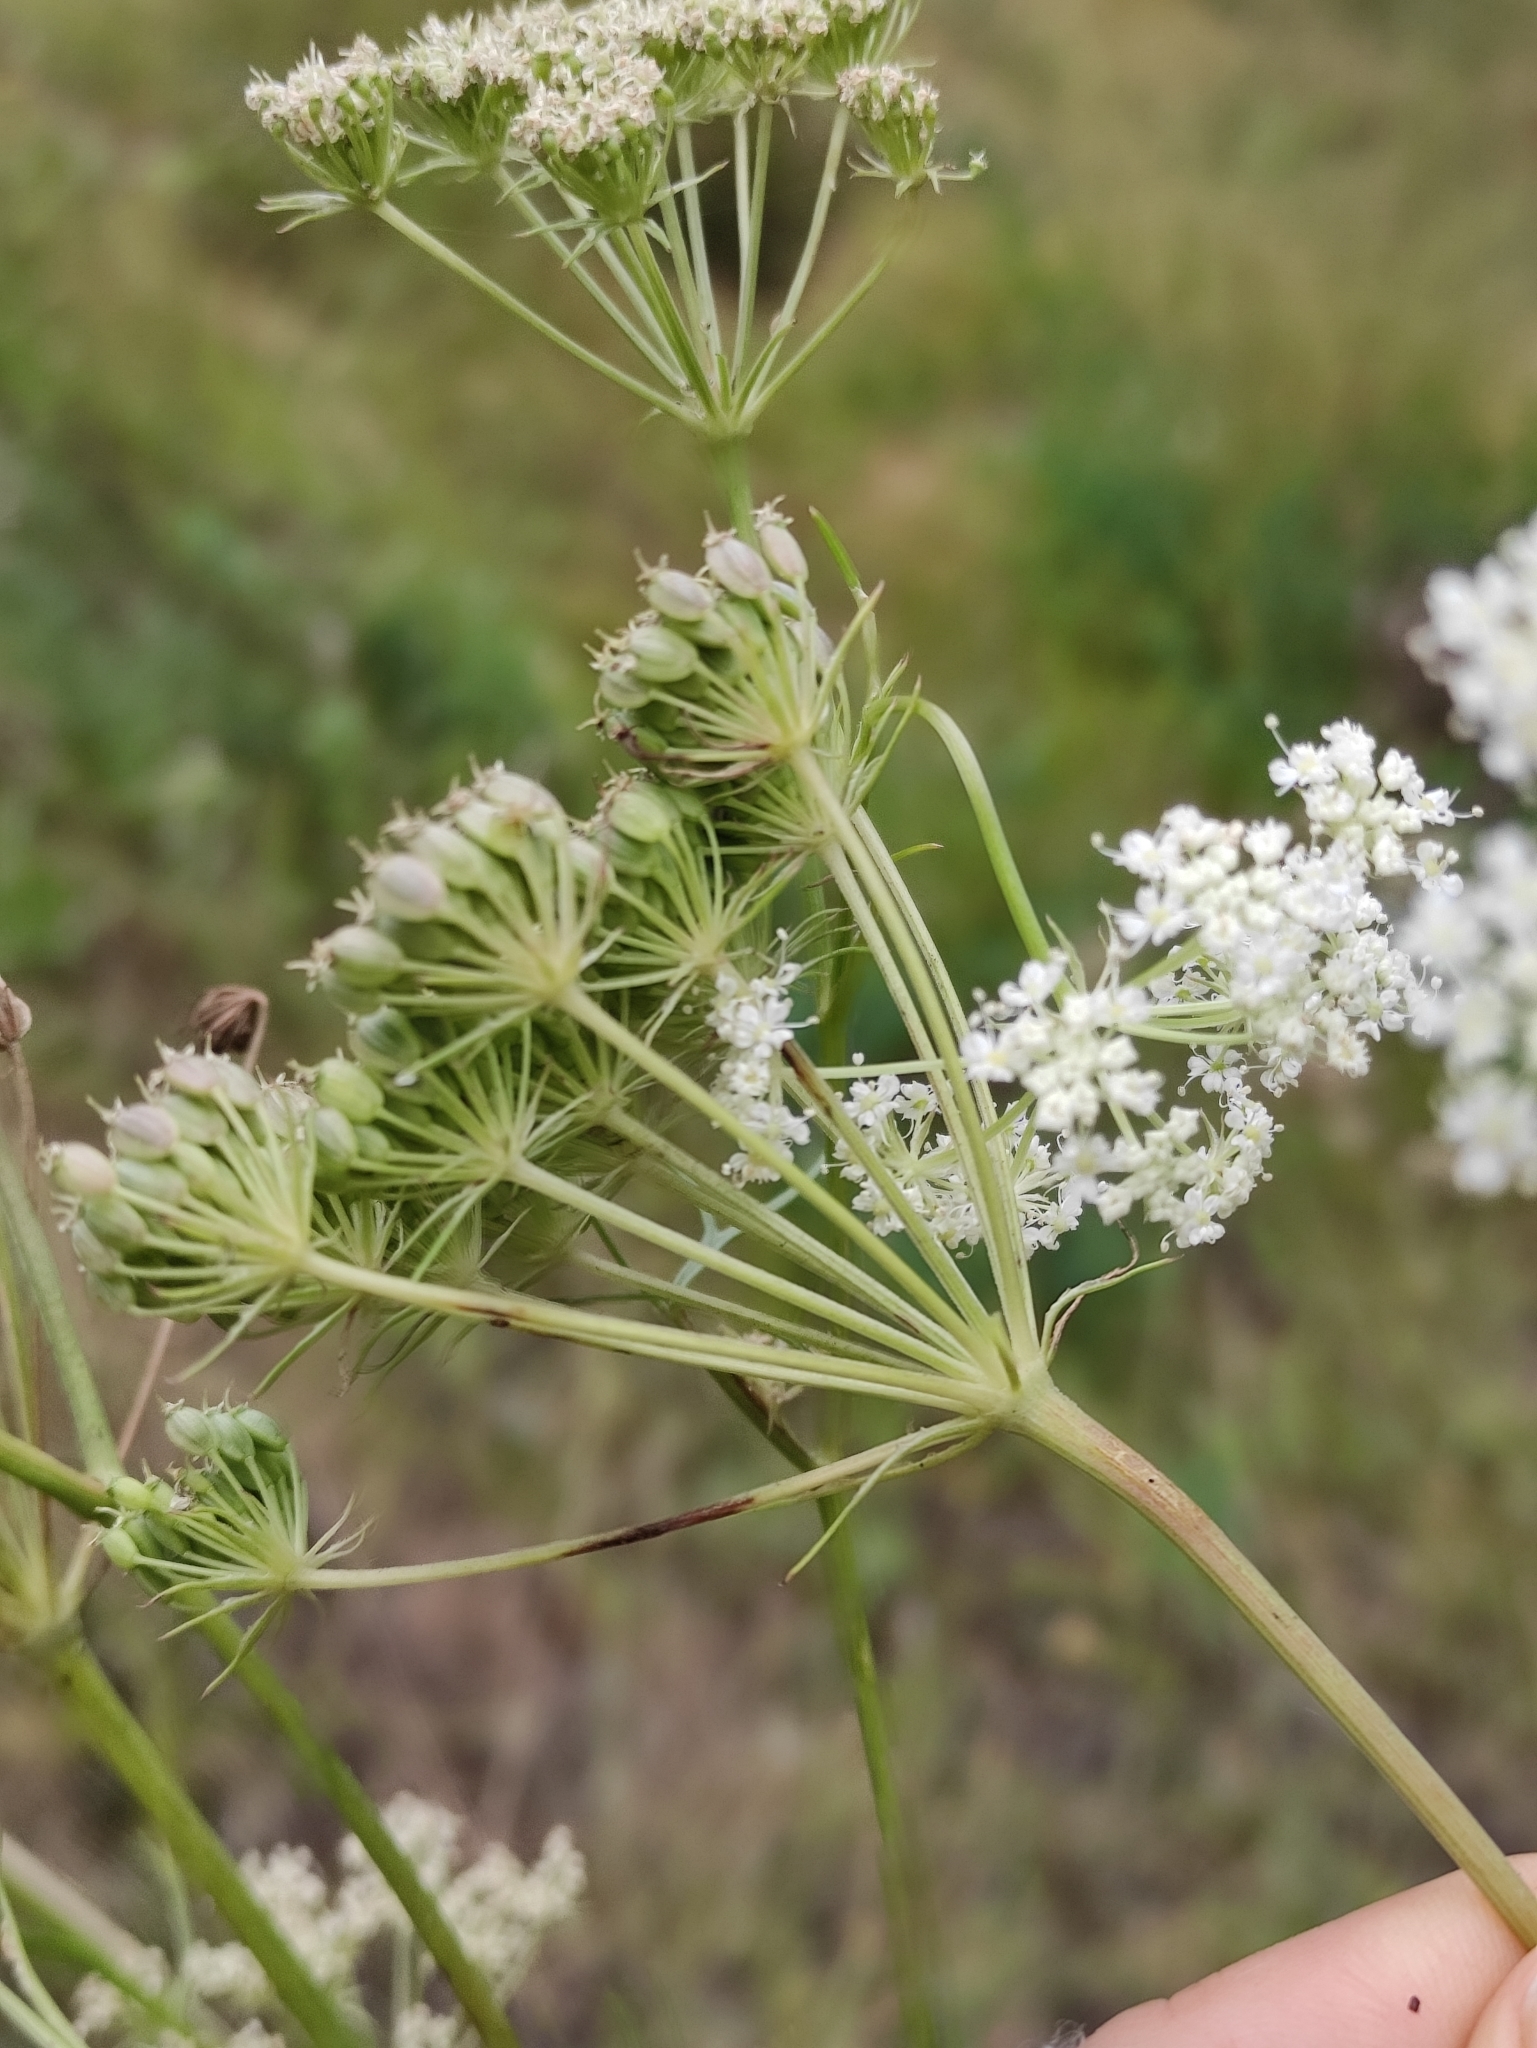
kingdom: Plantae
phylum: Tracheophyta
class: Magnoliopsida
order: Apiales
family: Apiaceae
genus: Kitagawia
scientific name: Kitagawia baicalensis
